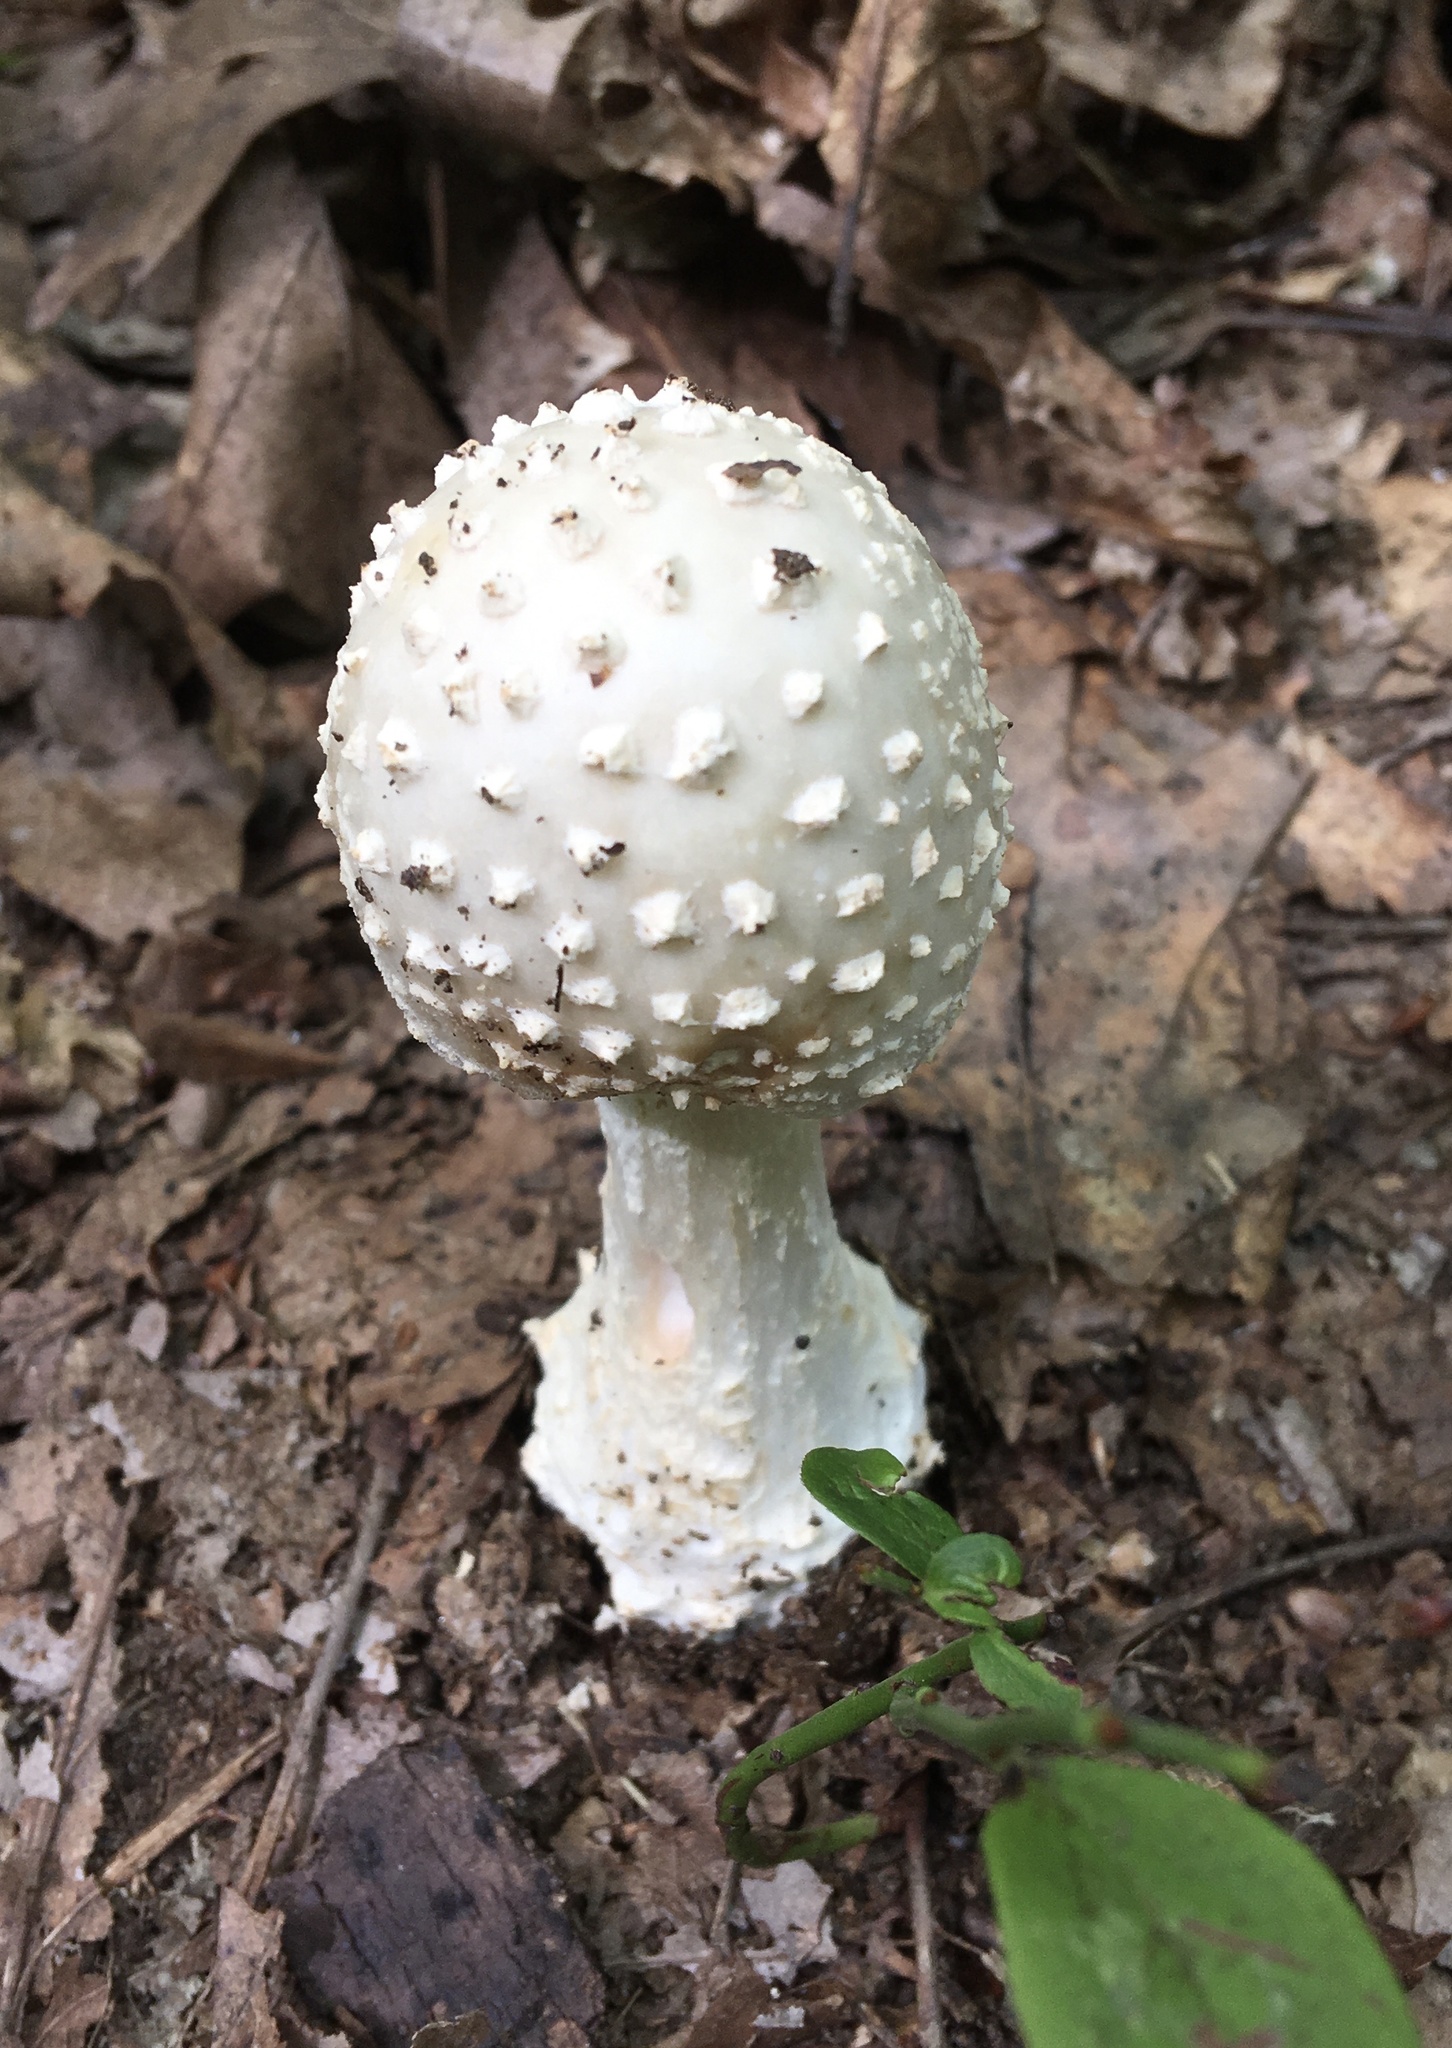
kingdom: Fungi
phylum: Basidiomycota
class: Agaricomycetes
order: Agaricales
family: Amanitaceae
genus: Amanita
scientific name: Amanita cokeri
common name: Coker's amanita
